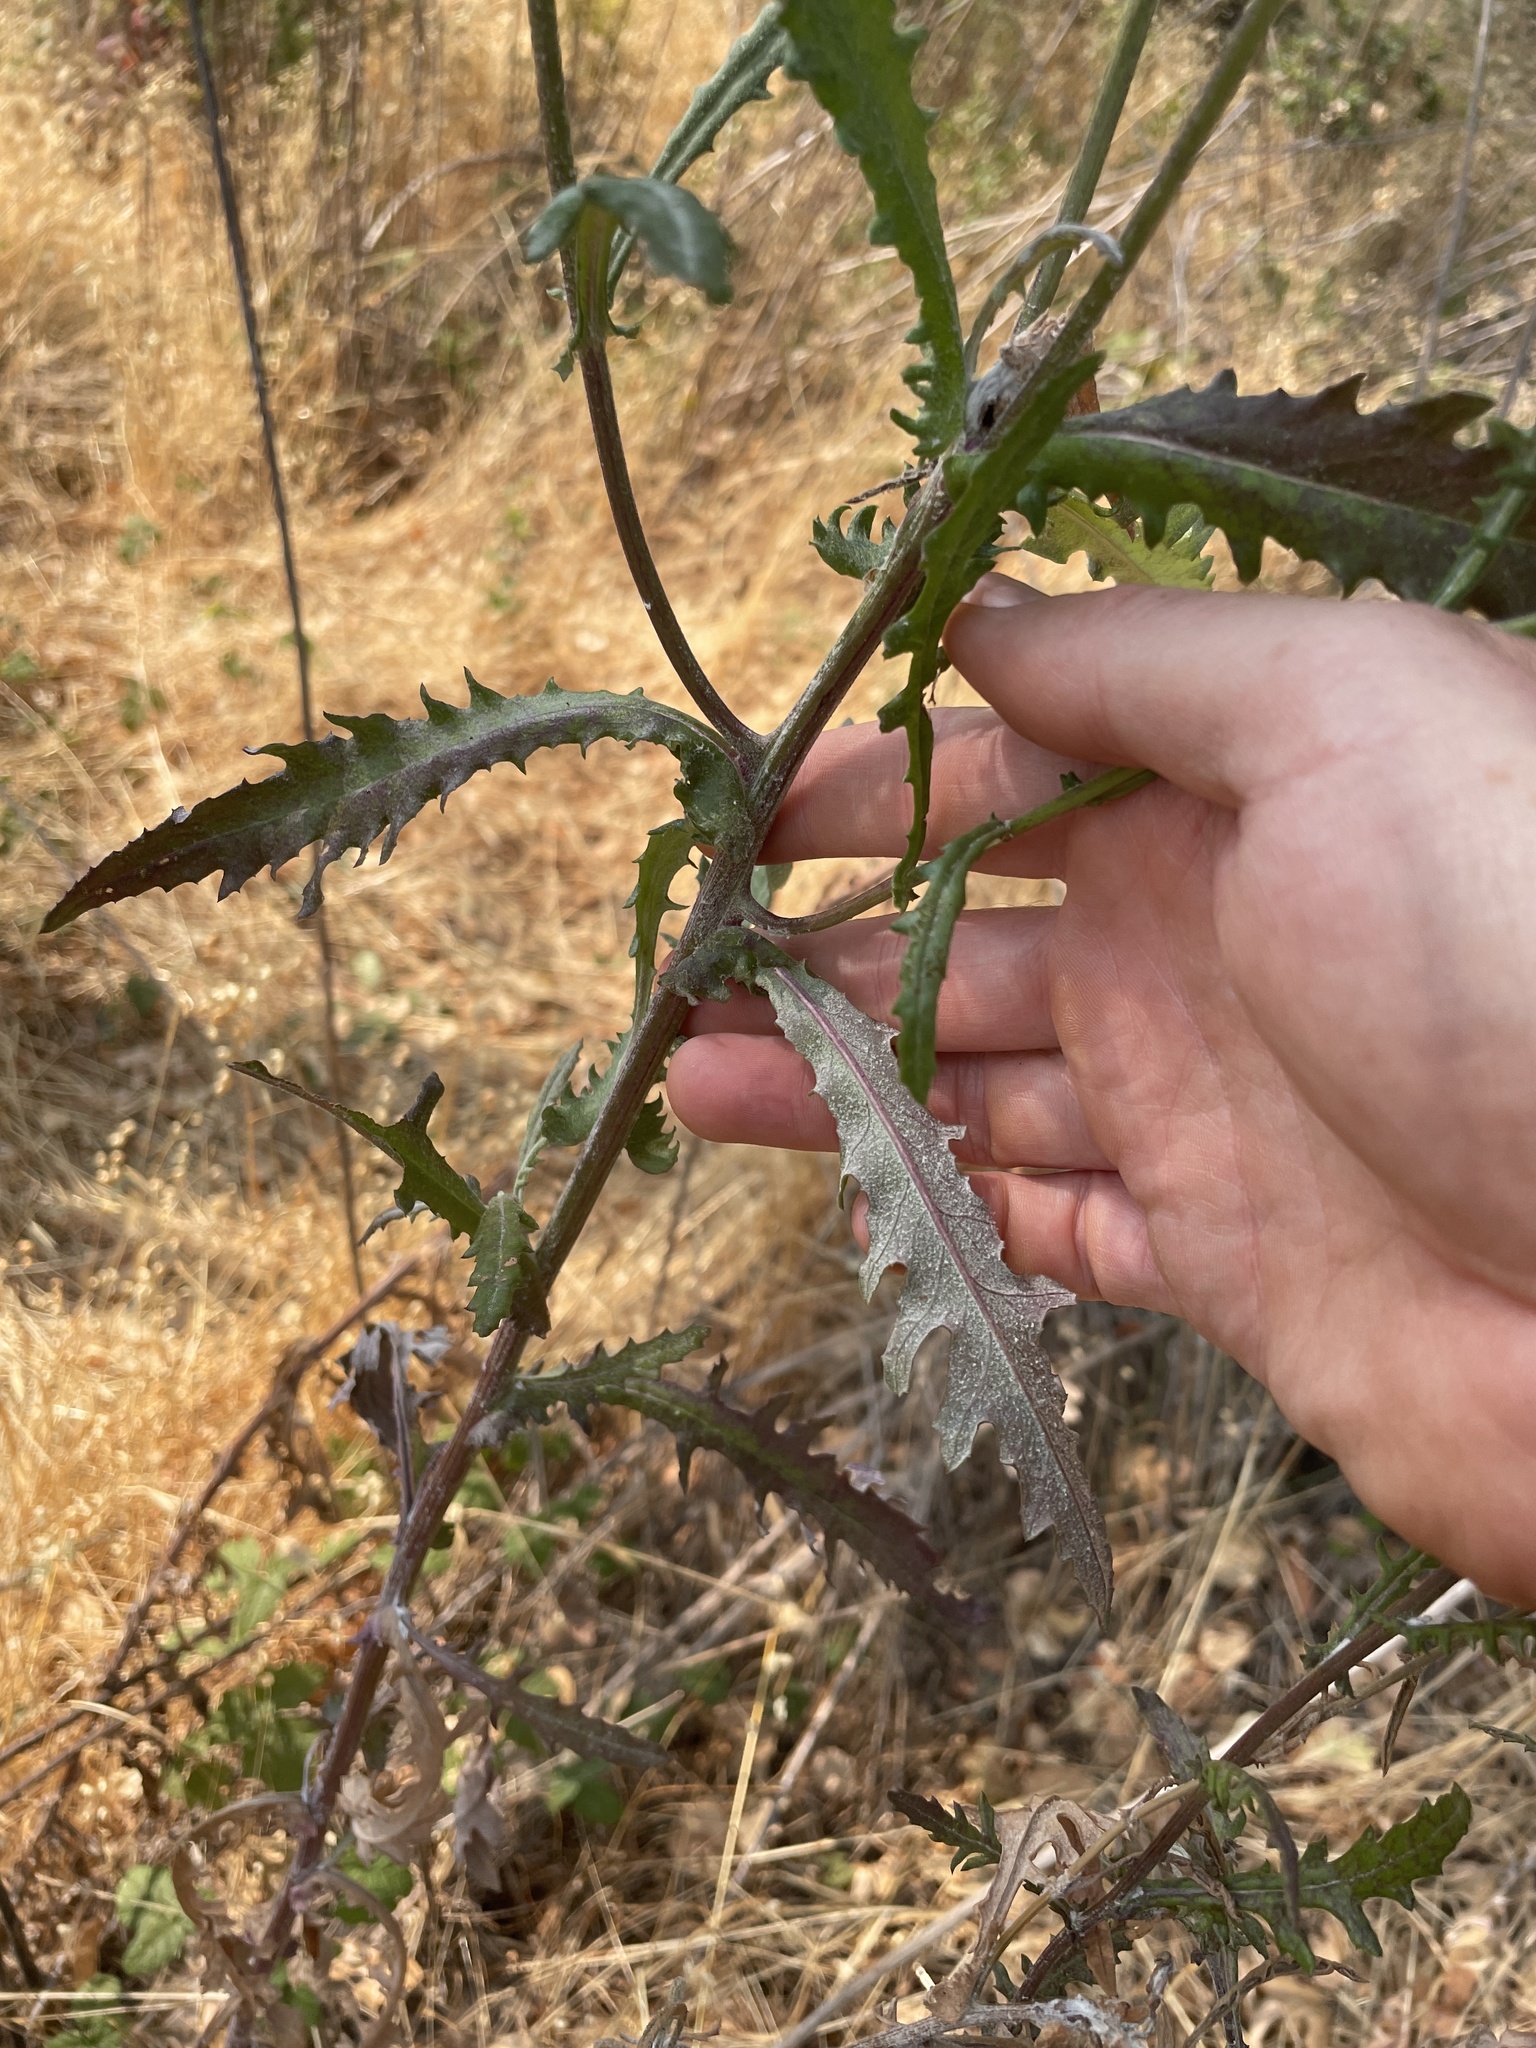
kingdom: Plantae
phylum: Tracheophyta
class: Magnoliopsida
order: Asterales
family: Asteraceae
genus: Senecio
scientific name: Senecio glomeratus
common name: Cutleaf burnweed
